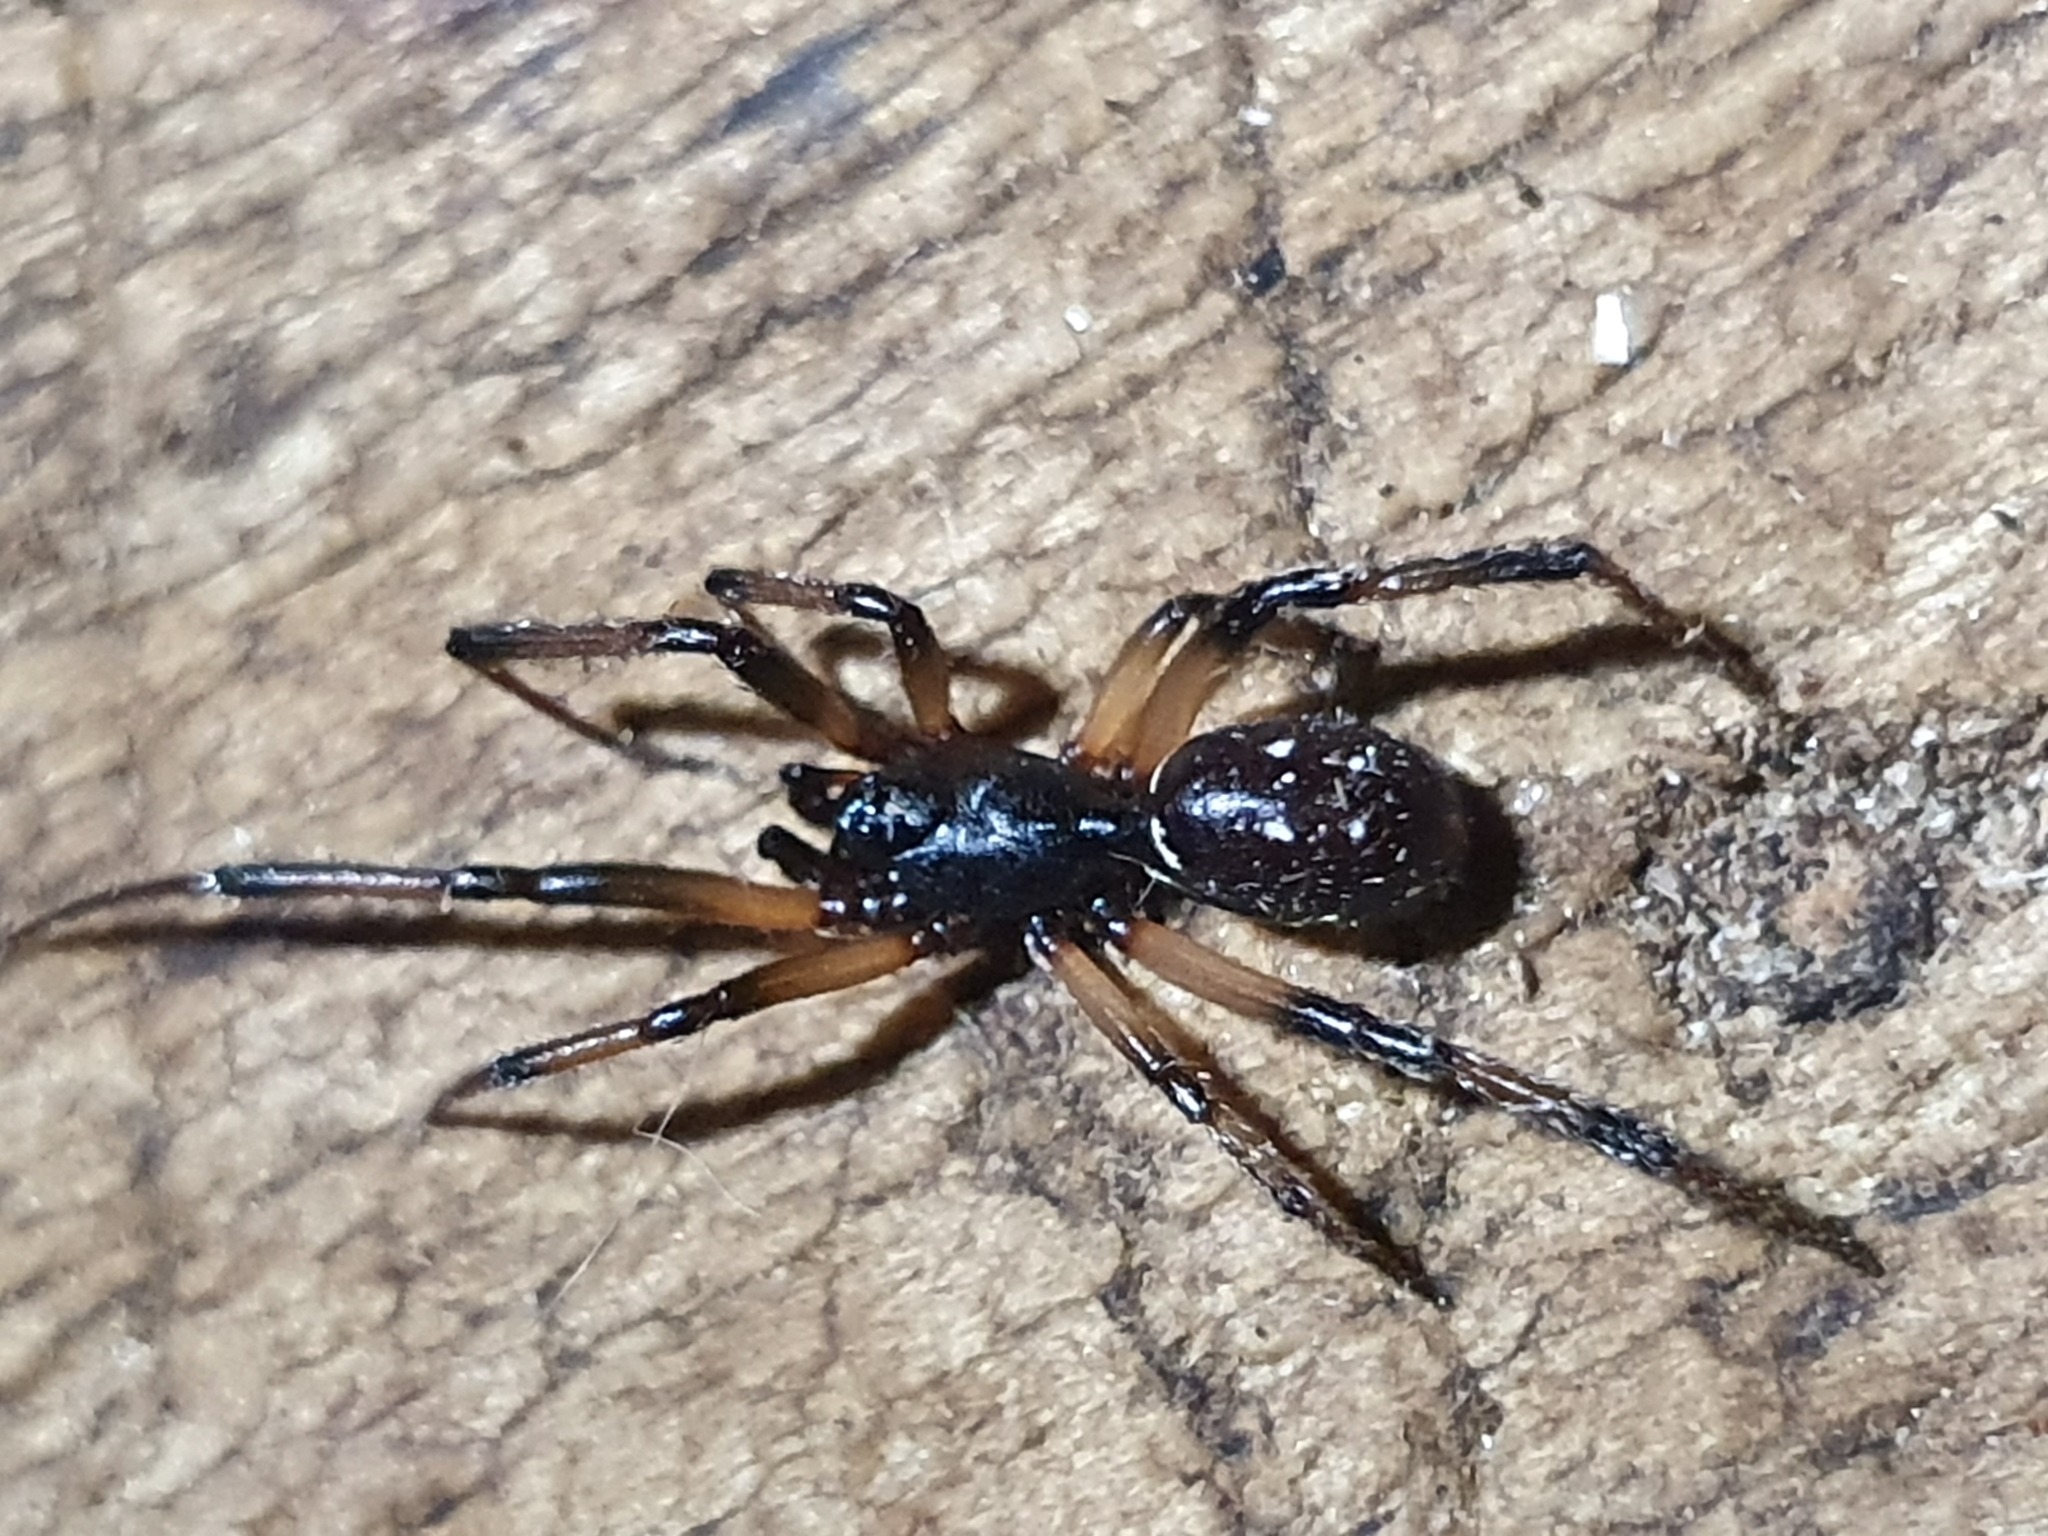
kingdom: Animalia
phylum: Arthropoda
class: Arachnida
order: Araneae
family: Theridiidae
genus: Steatoda
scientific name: Steatoda capensis
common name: Cobweb weaver
